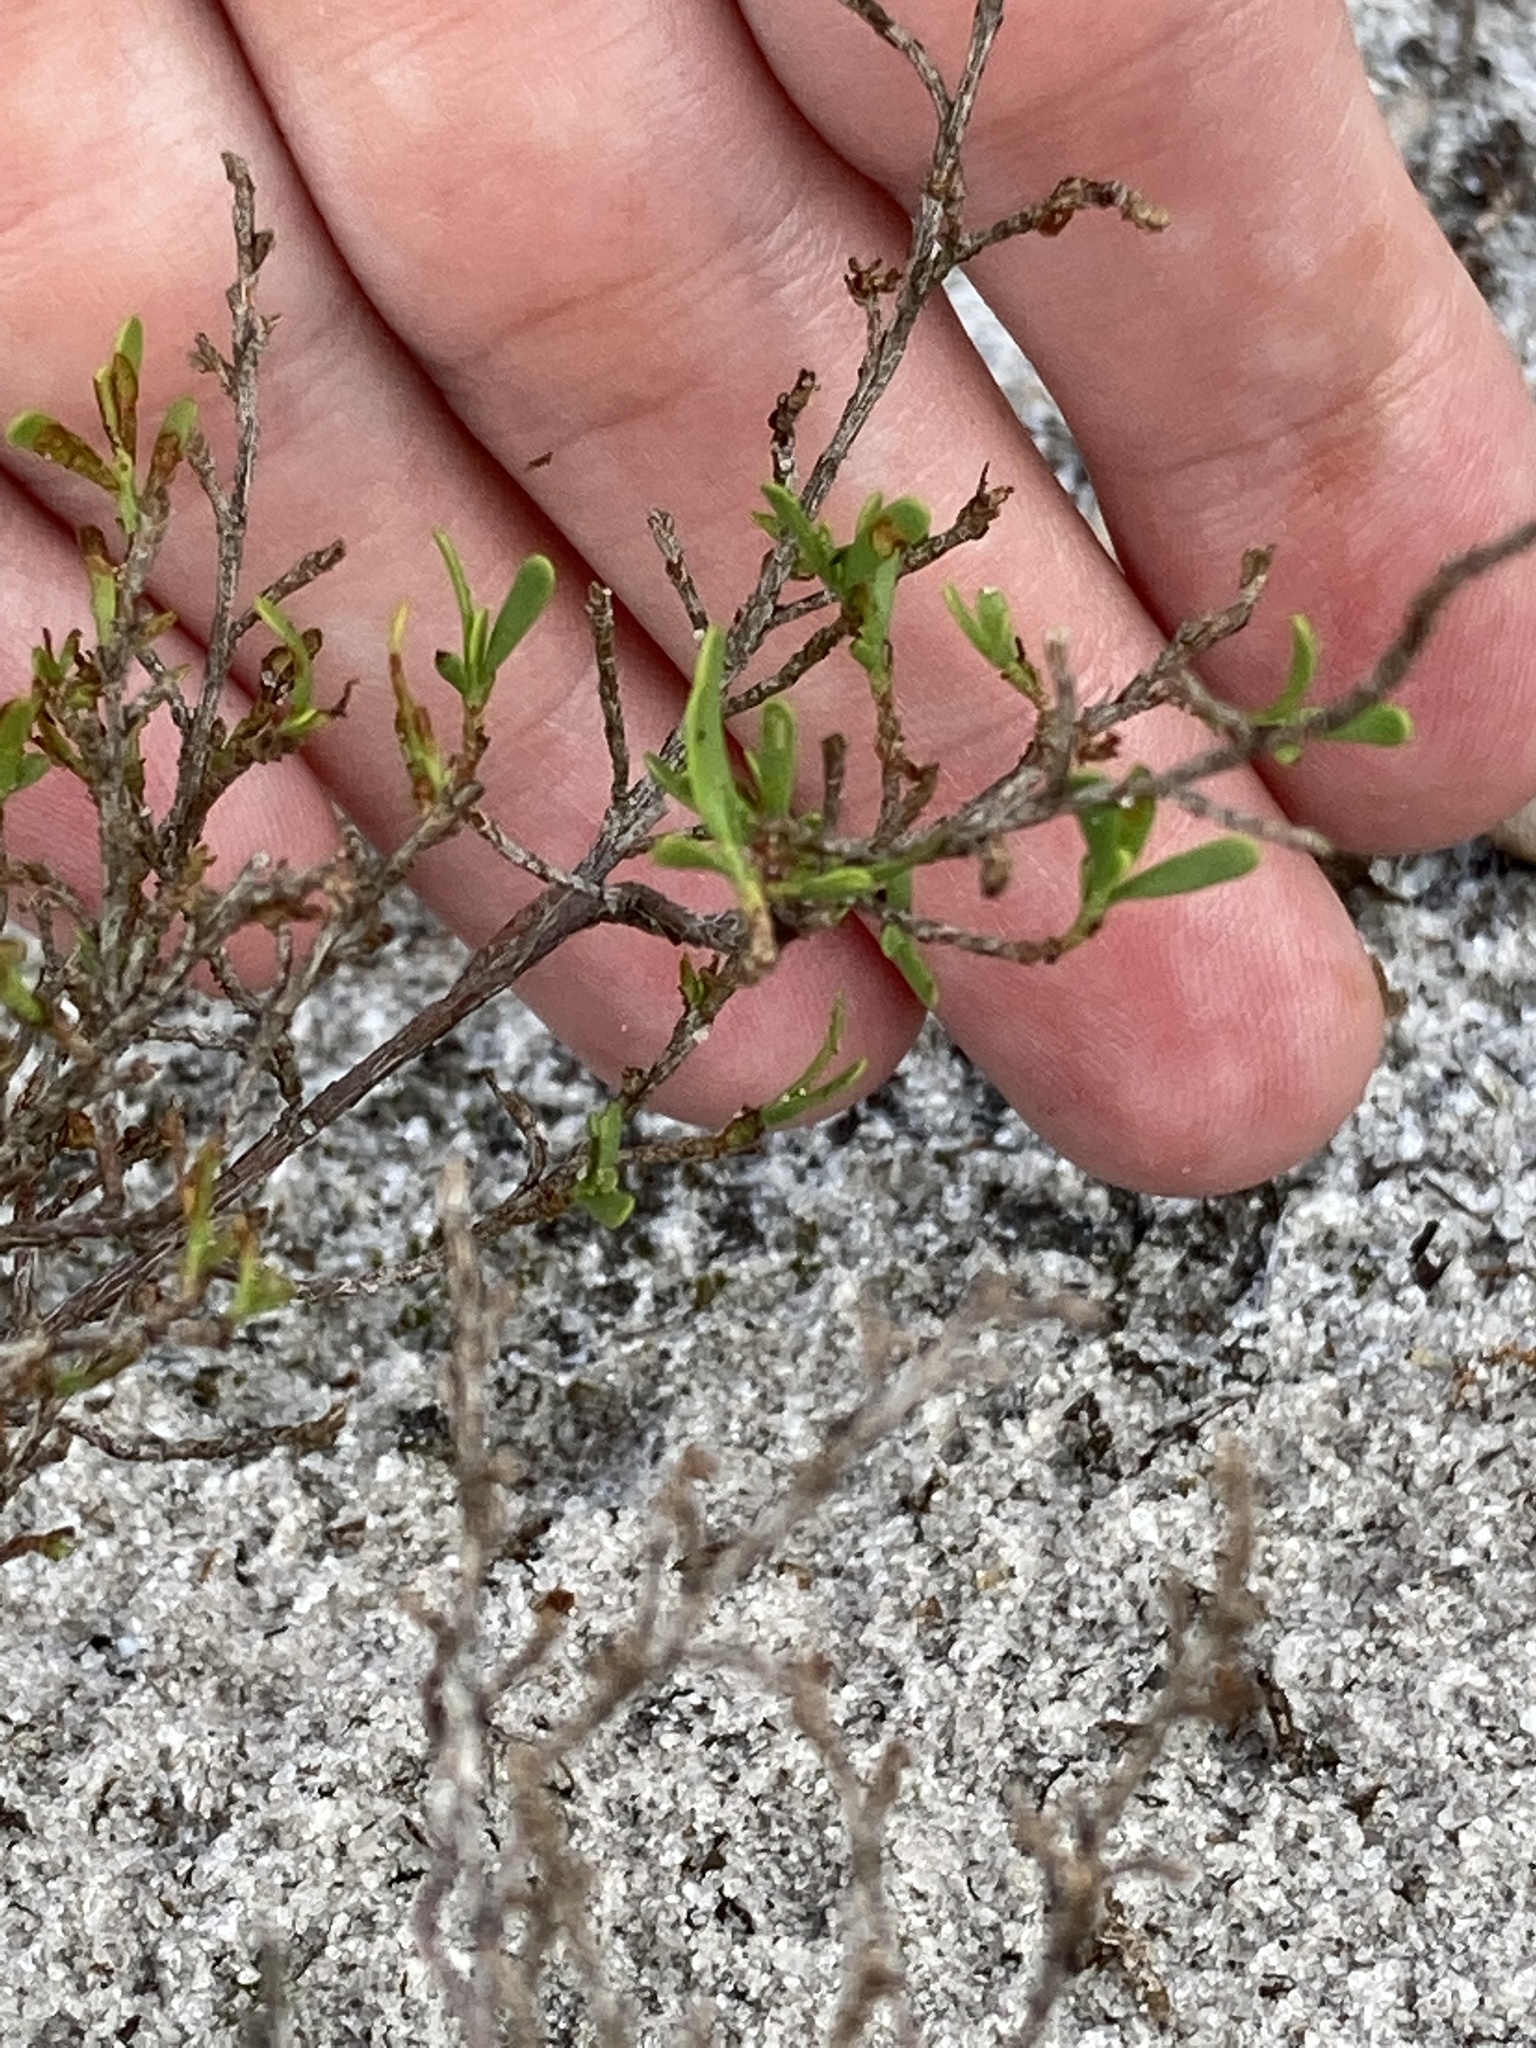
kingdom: Plantae
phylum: Tracheophyta
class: Magnoliopsida
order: Caryophyllales
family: Polygonaceae
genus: Polygonella
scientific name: Polygonella polygama
